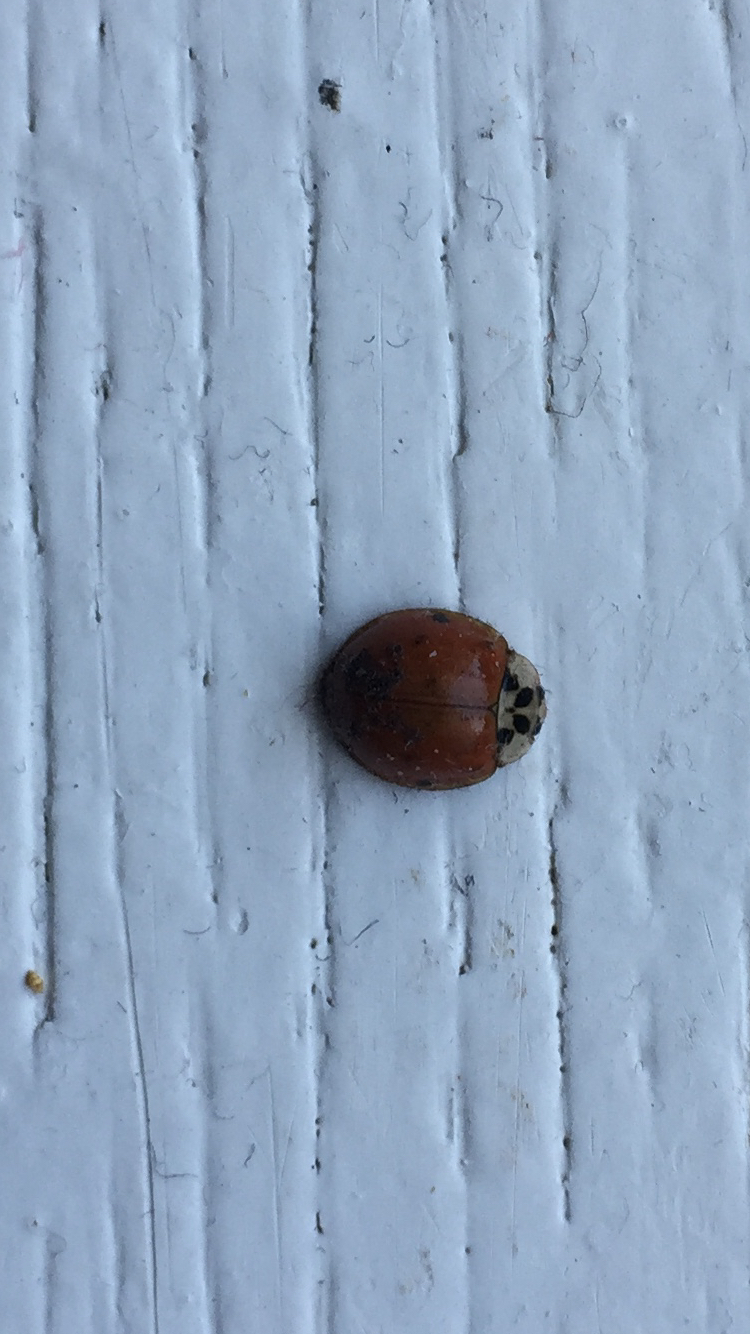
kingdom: Animalia
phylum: Arthropoda
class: Insecta
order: Coleoptera
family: Coccinellidae
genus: Harmonia
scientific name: Harmonia axyridis
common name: Harlequin ladybird
